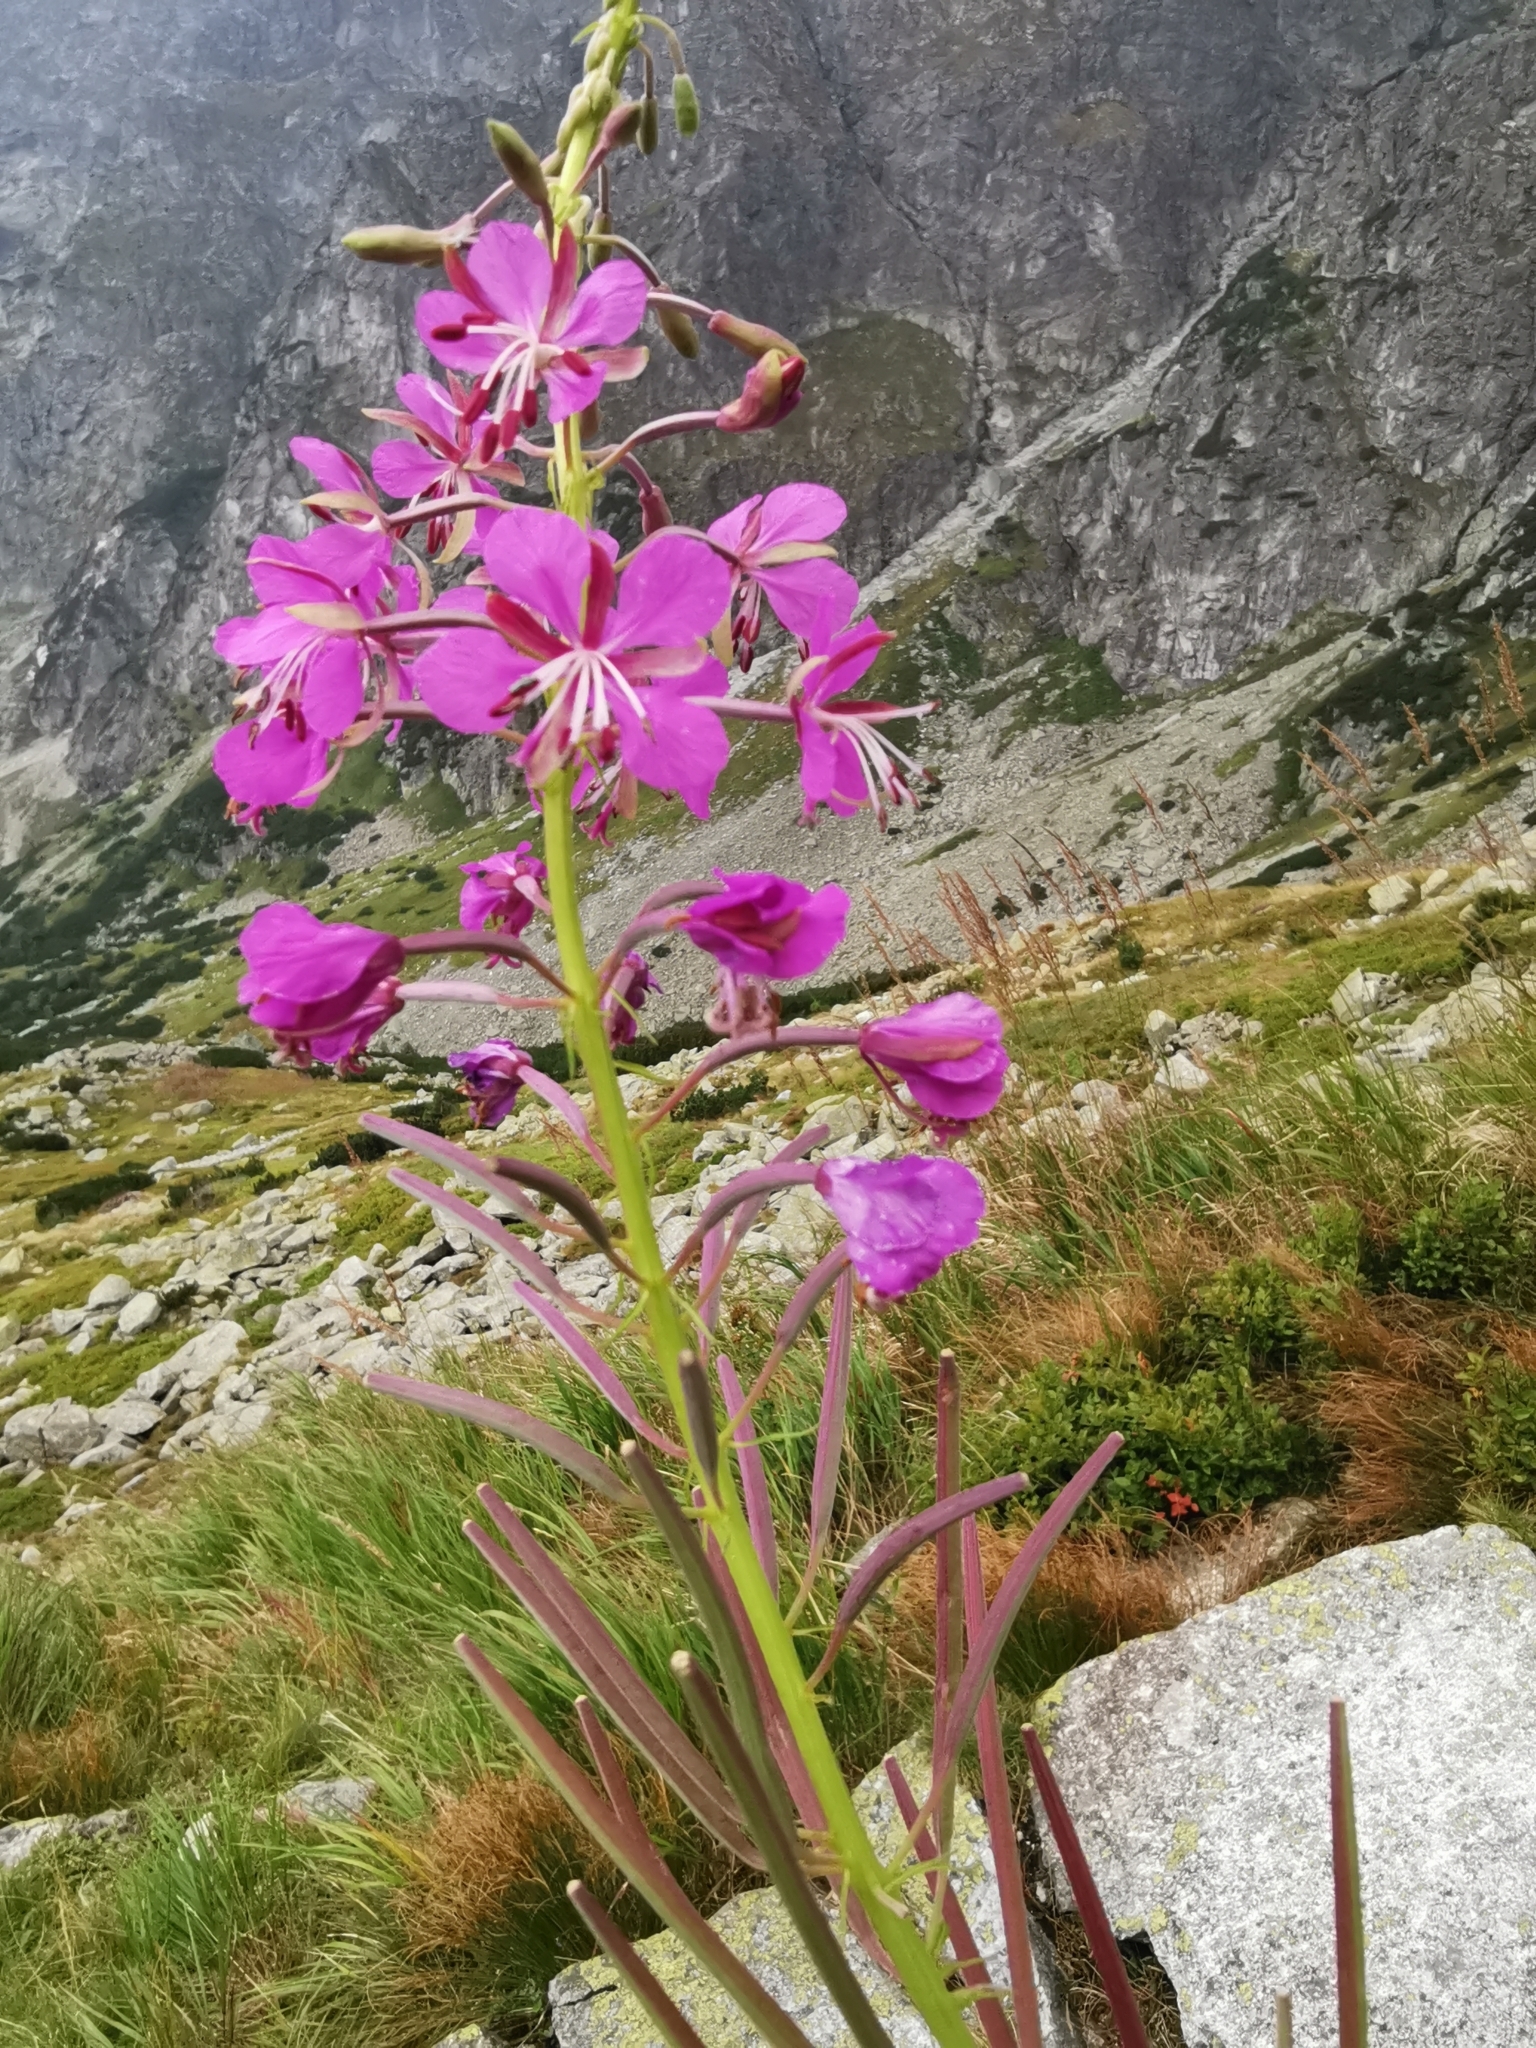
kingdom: Plantae
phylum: Tracheophyta
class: Magnoliopsida
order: Myrtales
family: Onagraceae
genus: Chamaenerion
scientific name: Chamaenerion angustifolium
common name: Fireweed
